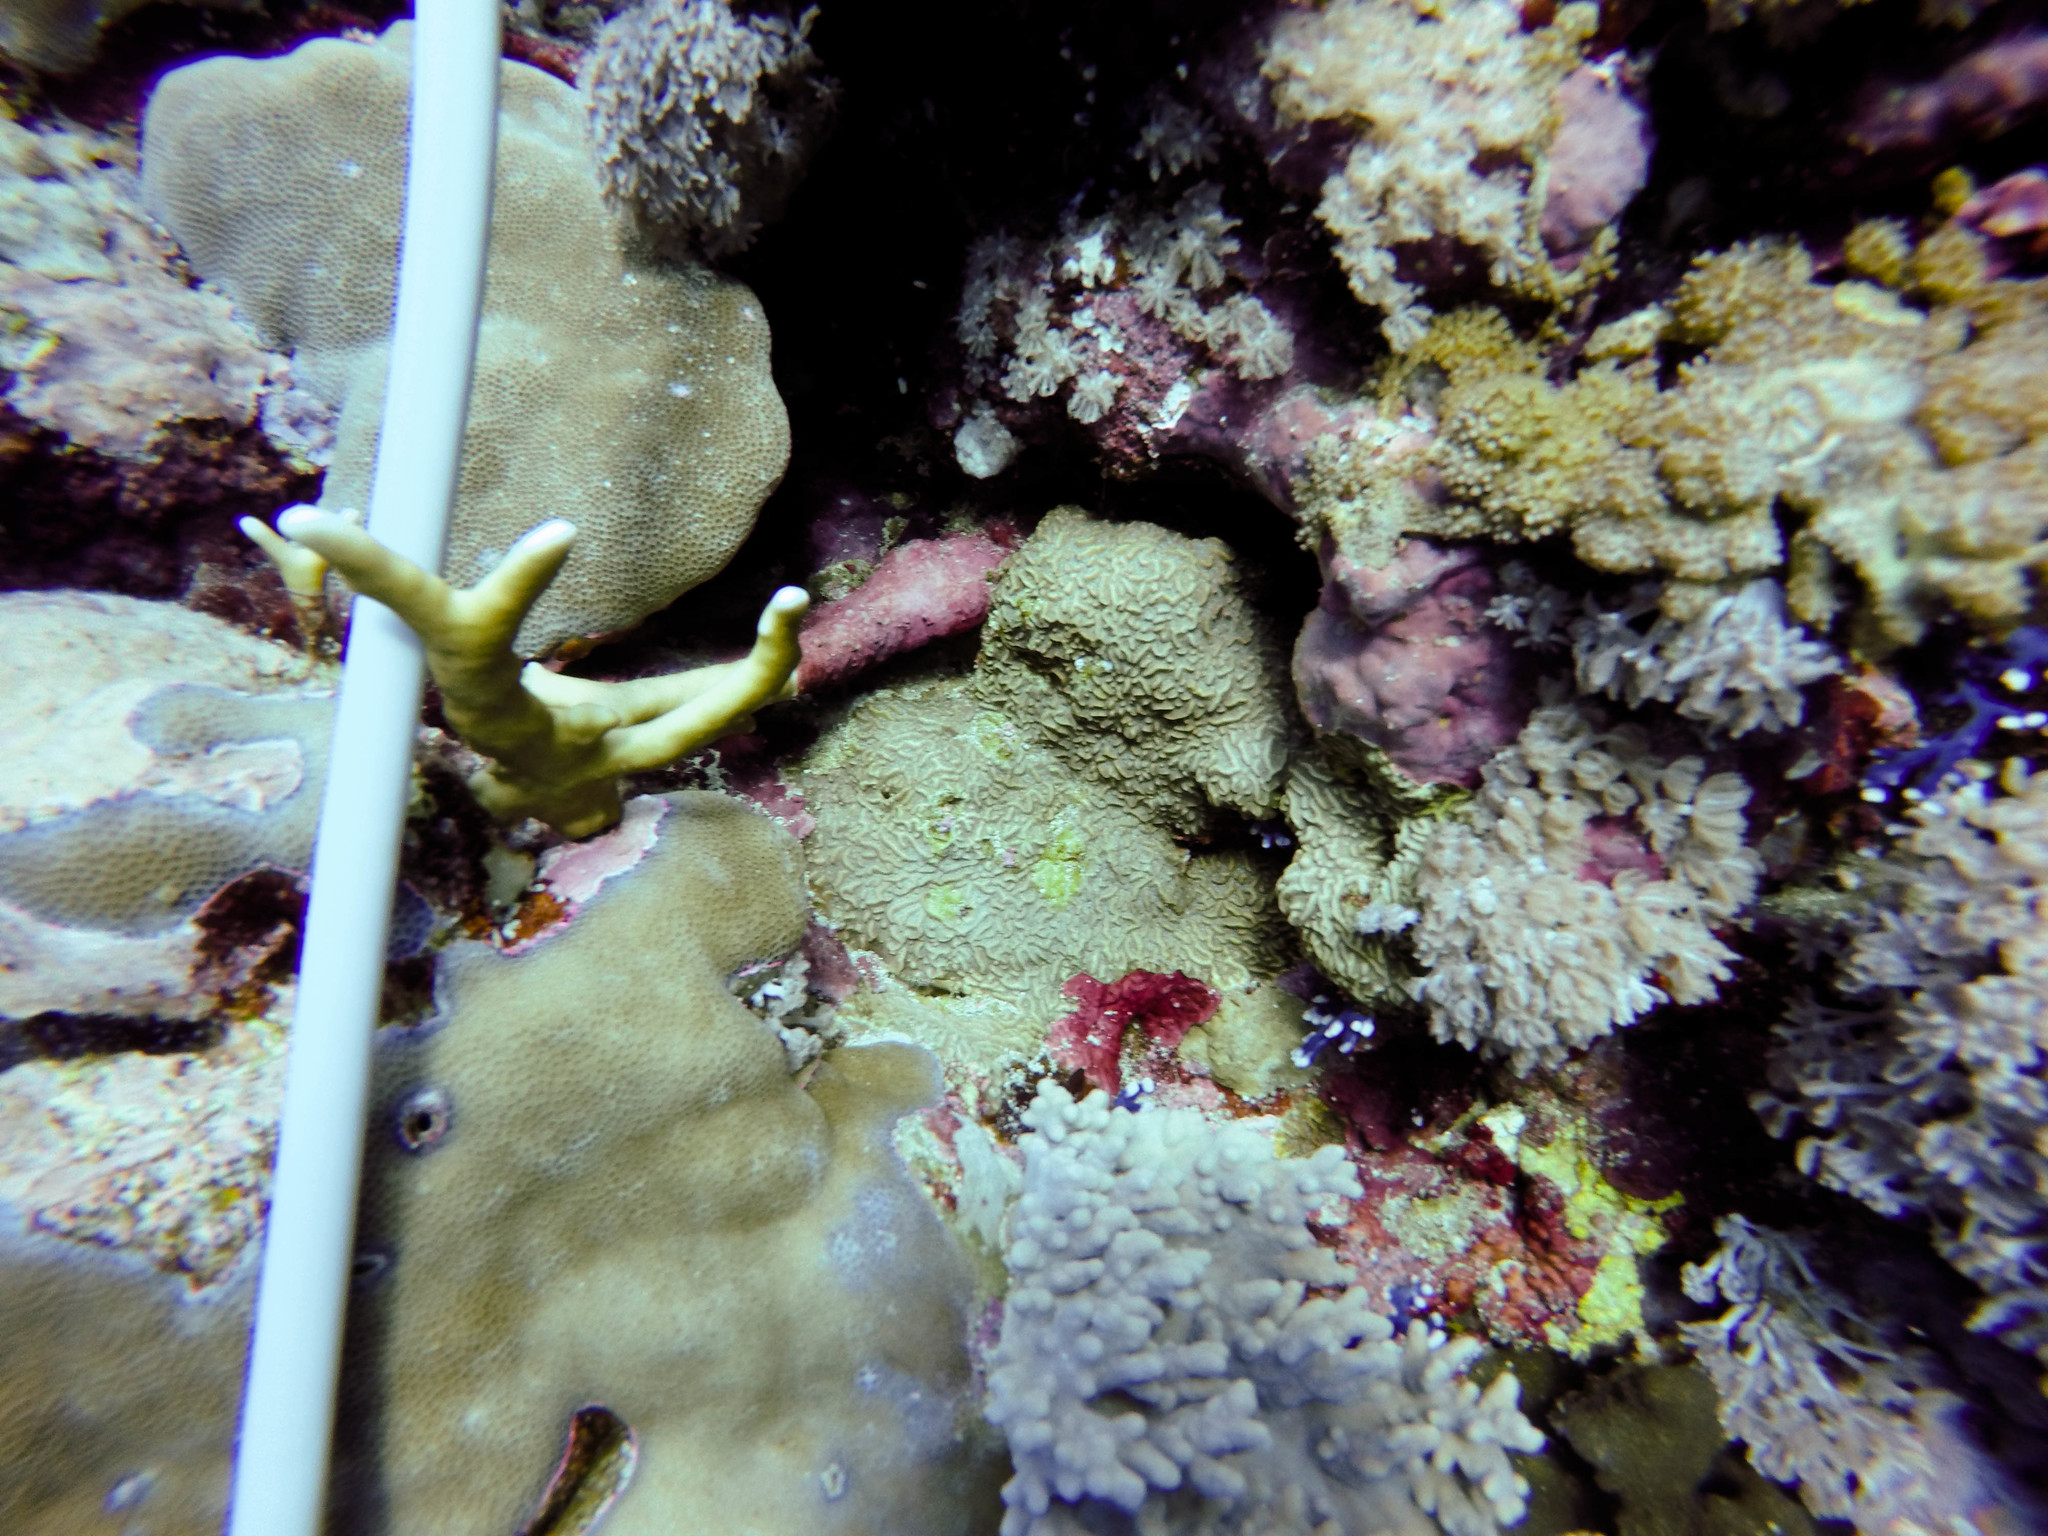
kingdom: Animalia
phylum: Cnidaria
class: Anthozoa
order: Scleractinia
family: Agariciidae
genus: Pavona
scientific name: Pavona varians
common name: Leaf coral
